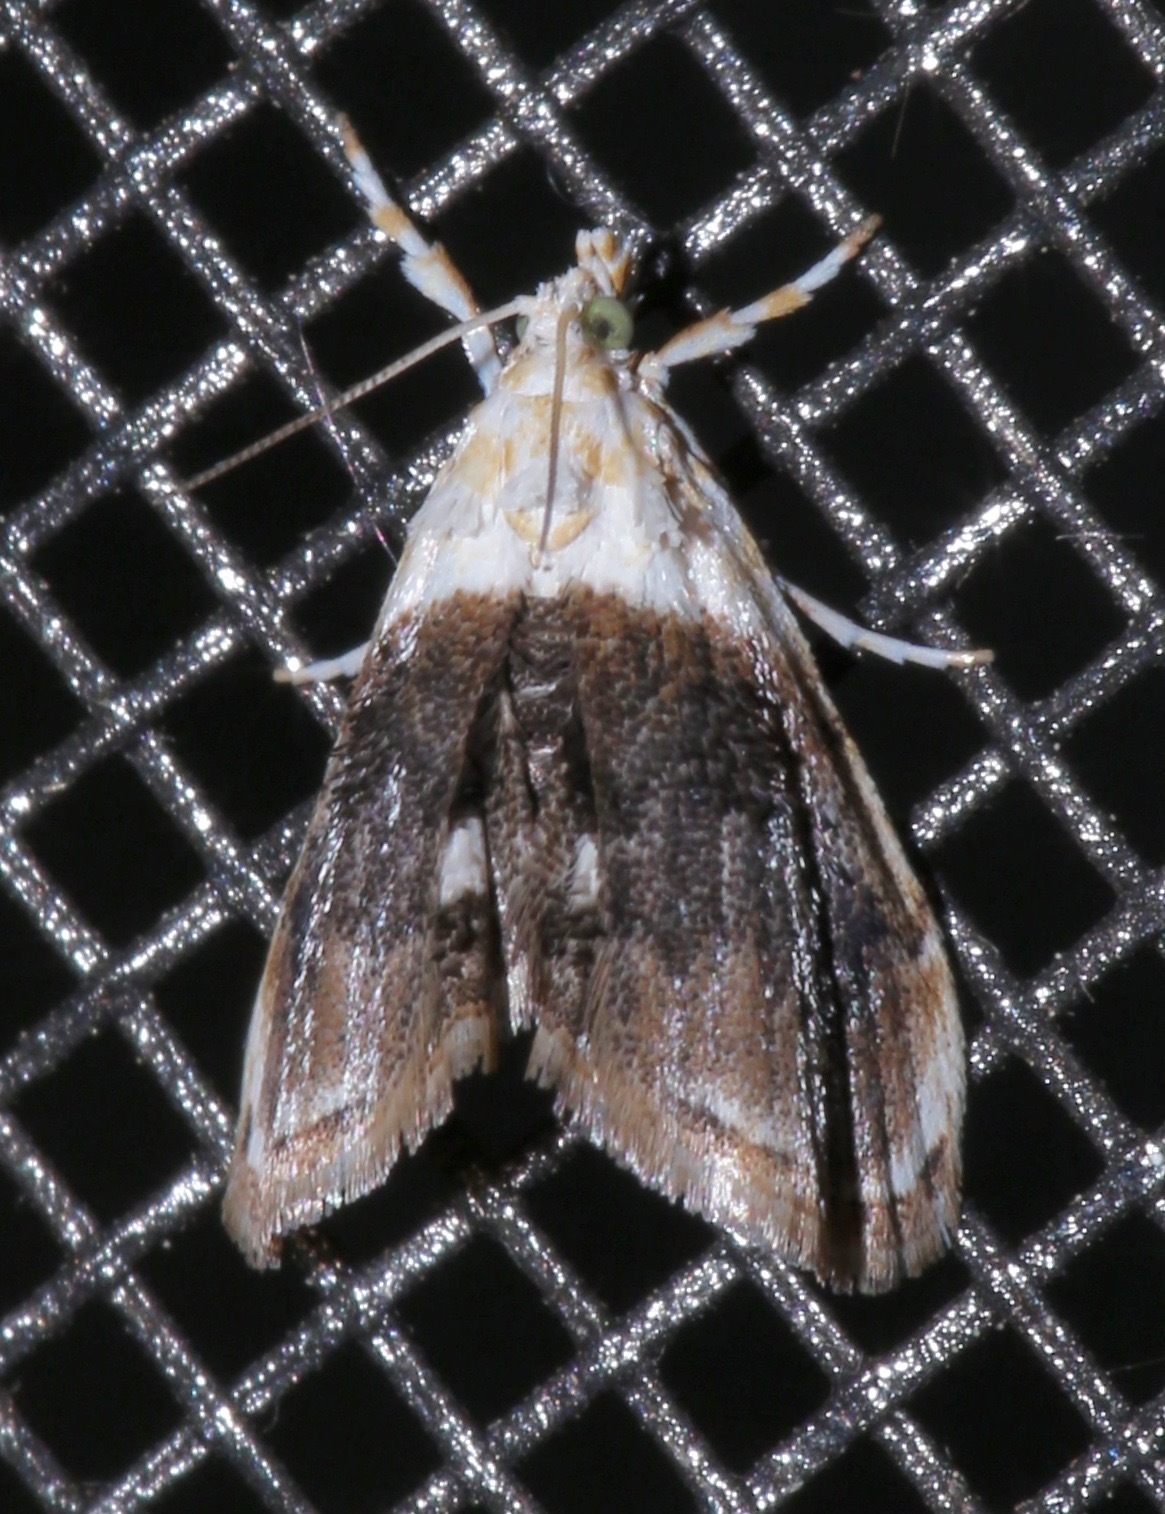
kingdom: Animalia
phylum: Arthropoda
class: Insecta
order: Lepidoptera
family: Crambidae
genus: Lipocosmodes
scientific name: Lipocosmodes fuliginosalis
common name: Sooty lipocosmodes moth
